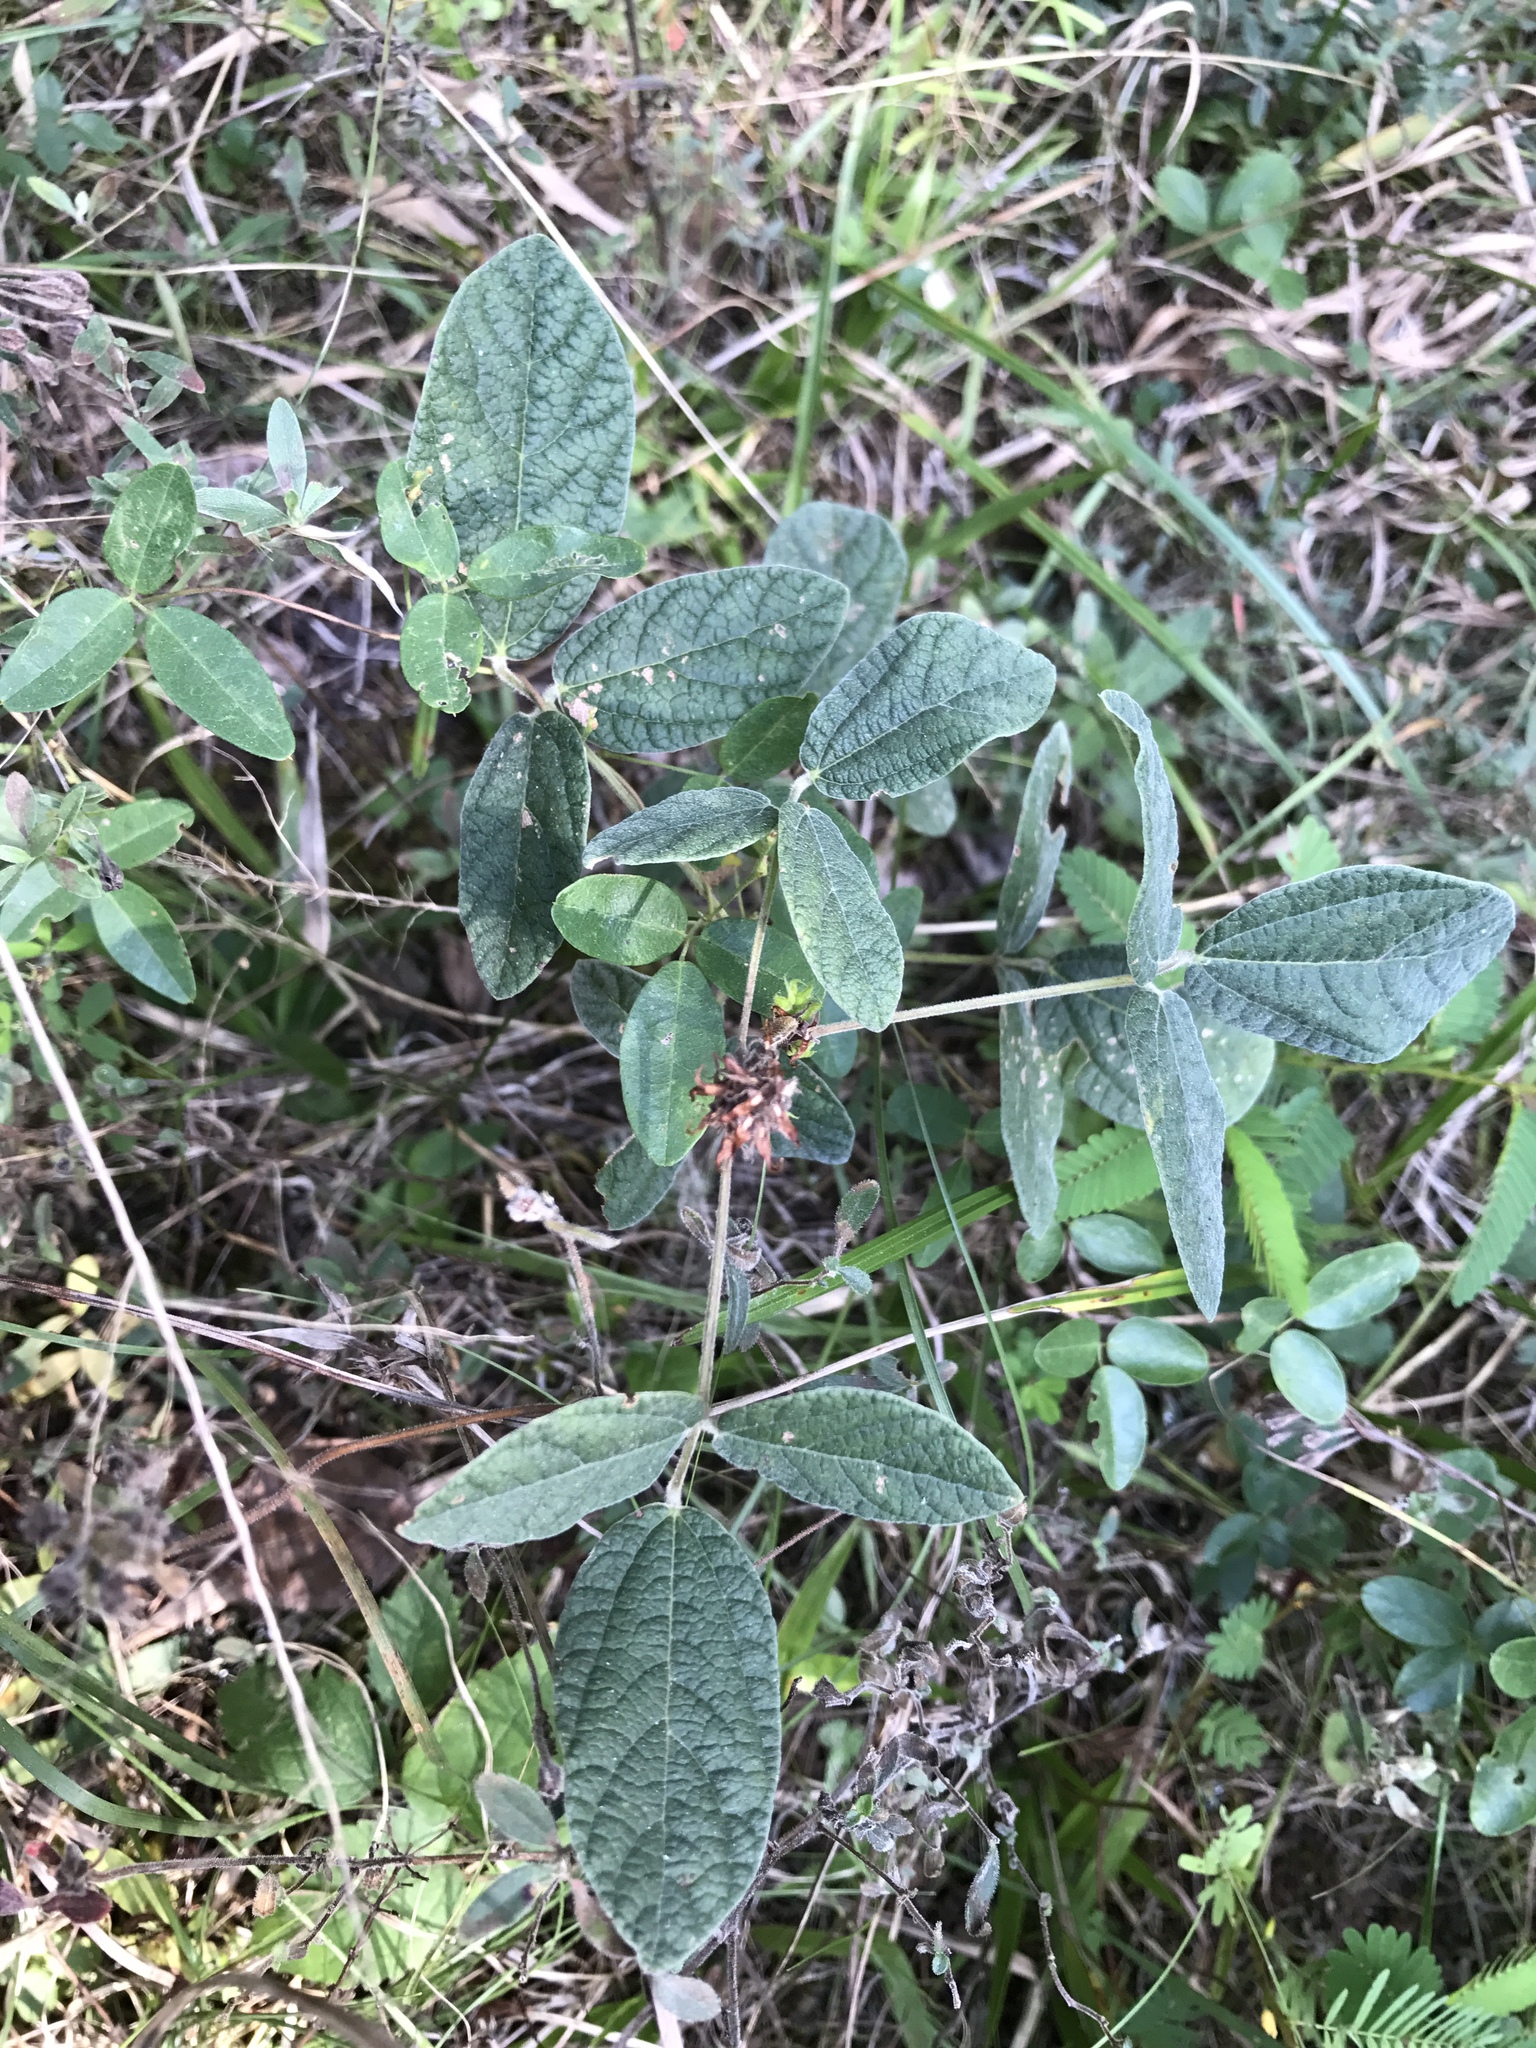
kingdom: Plantae
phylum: Tracheophyta
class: Magnoliopsida
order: Fabales
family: Fabaceae
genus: Rhynchosia
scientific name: Rhynchosia tomentosa
